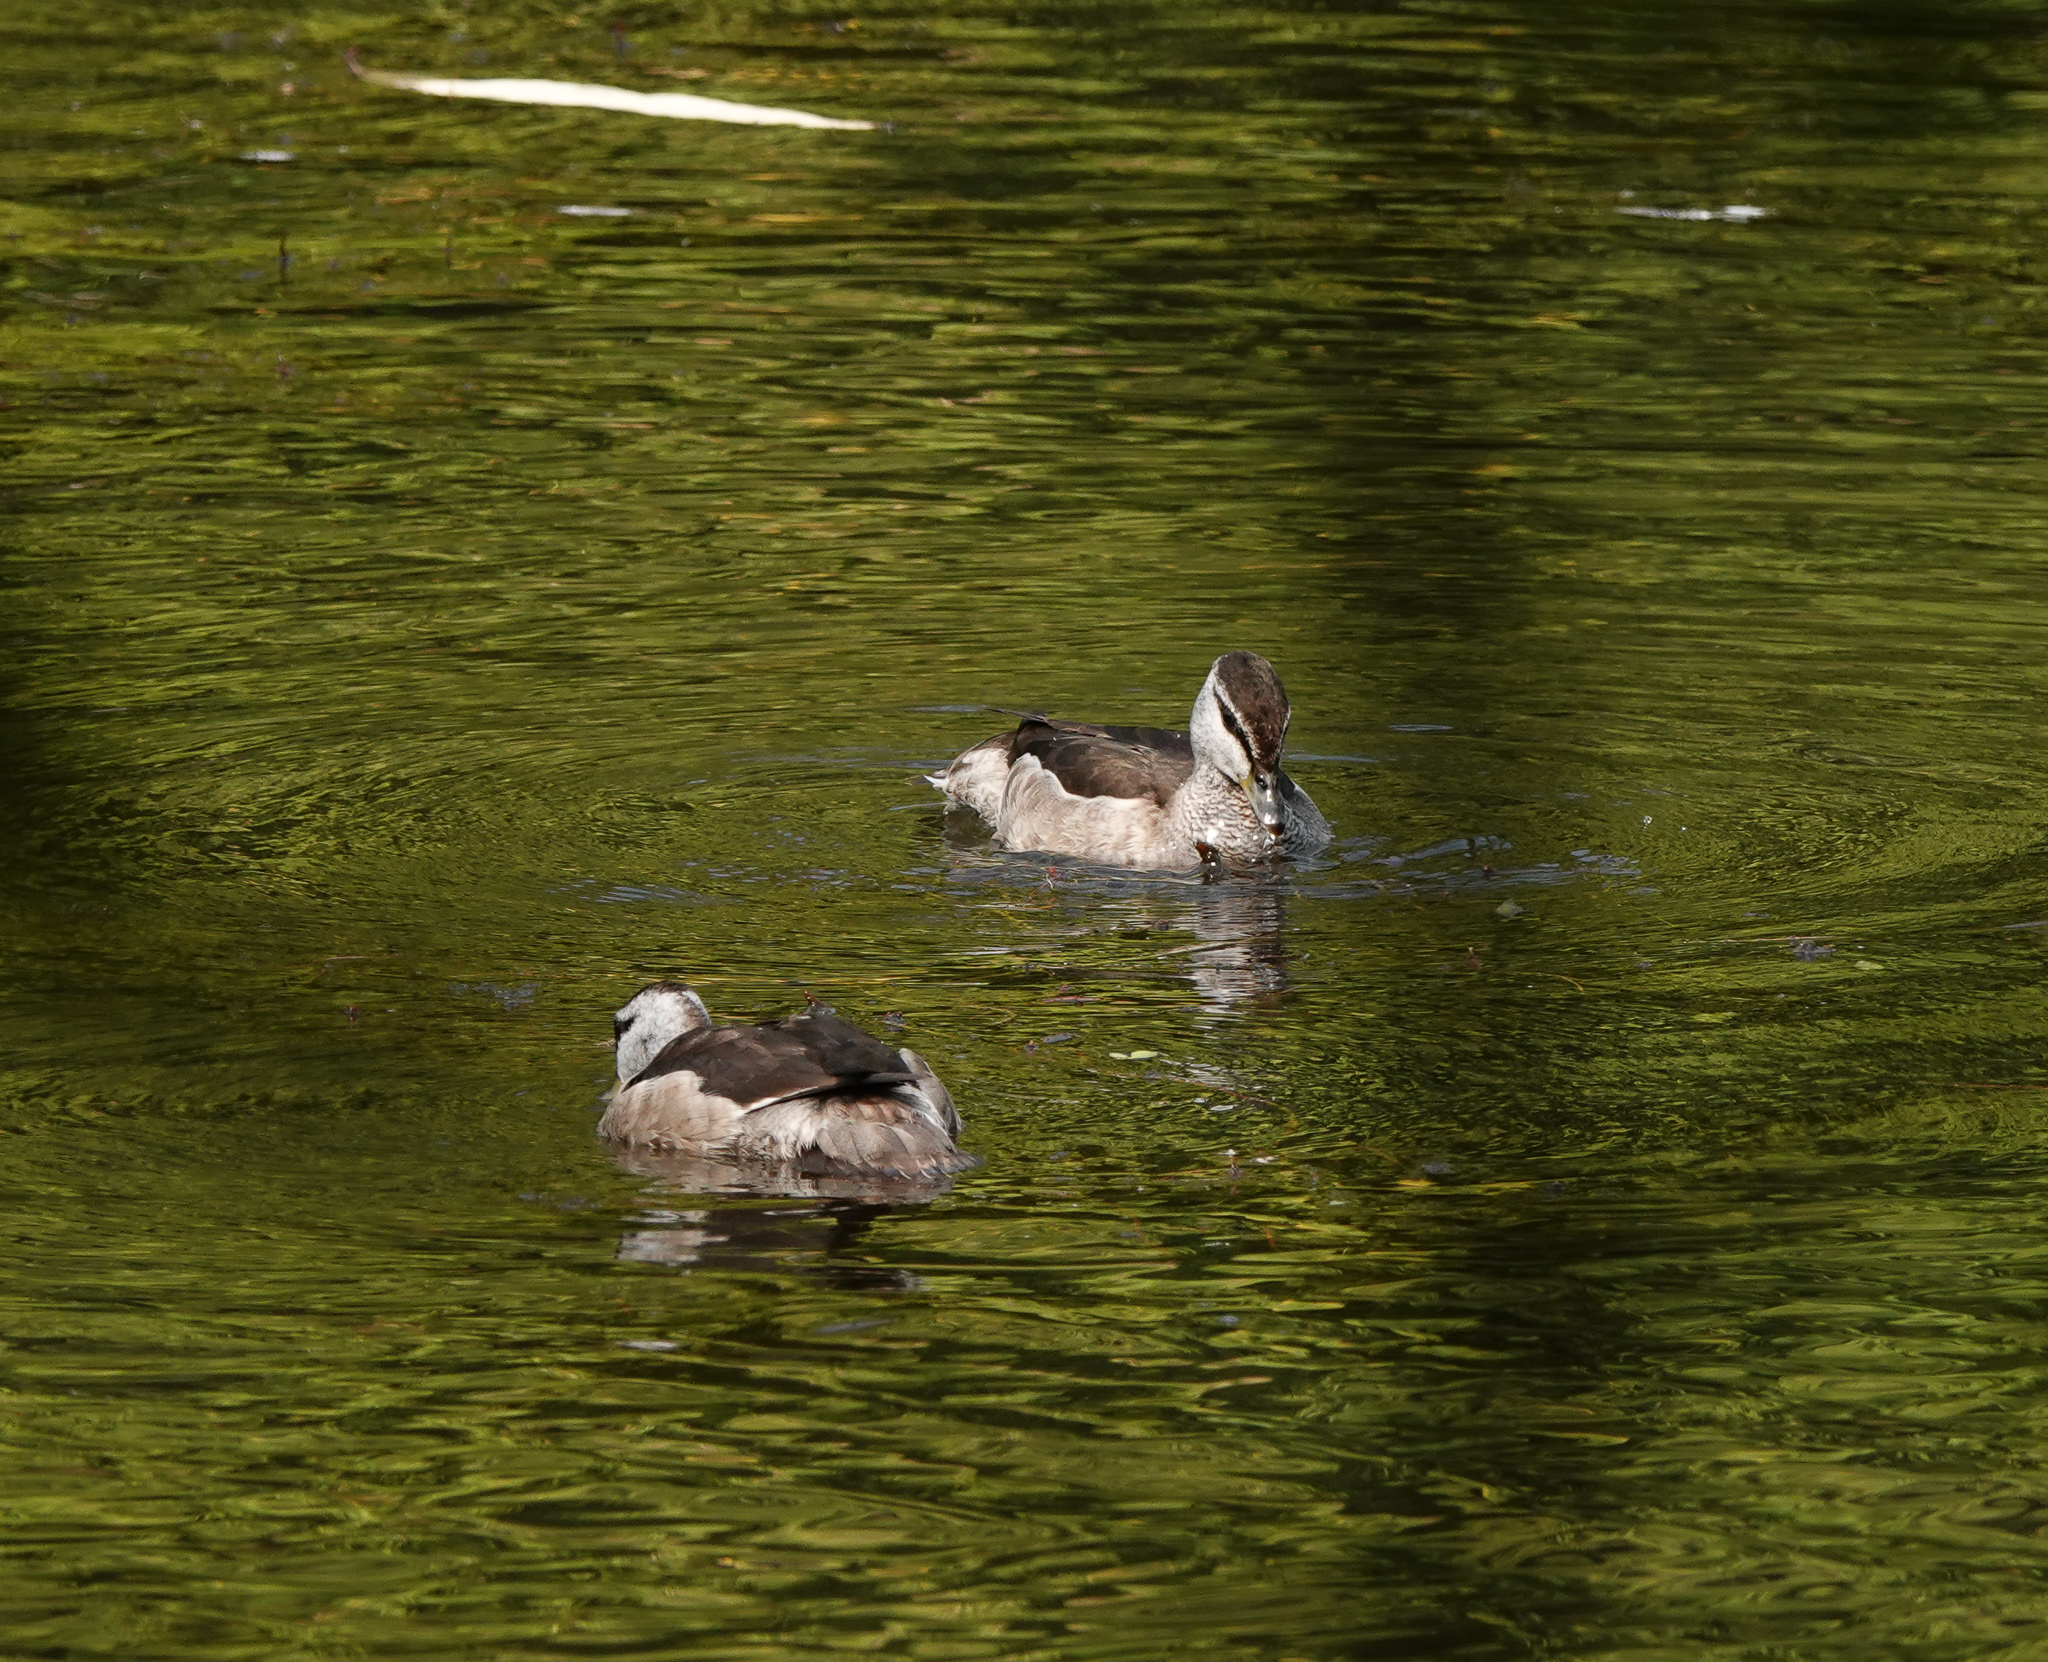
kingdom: Animalia
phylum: Chordata
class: Aves
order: Anseriformes
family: Anatidae
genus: Nettapus
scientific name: Nettapus coromandelianus
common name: Cotton pygmy-goose
